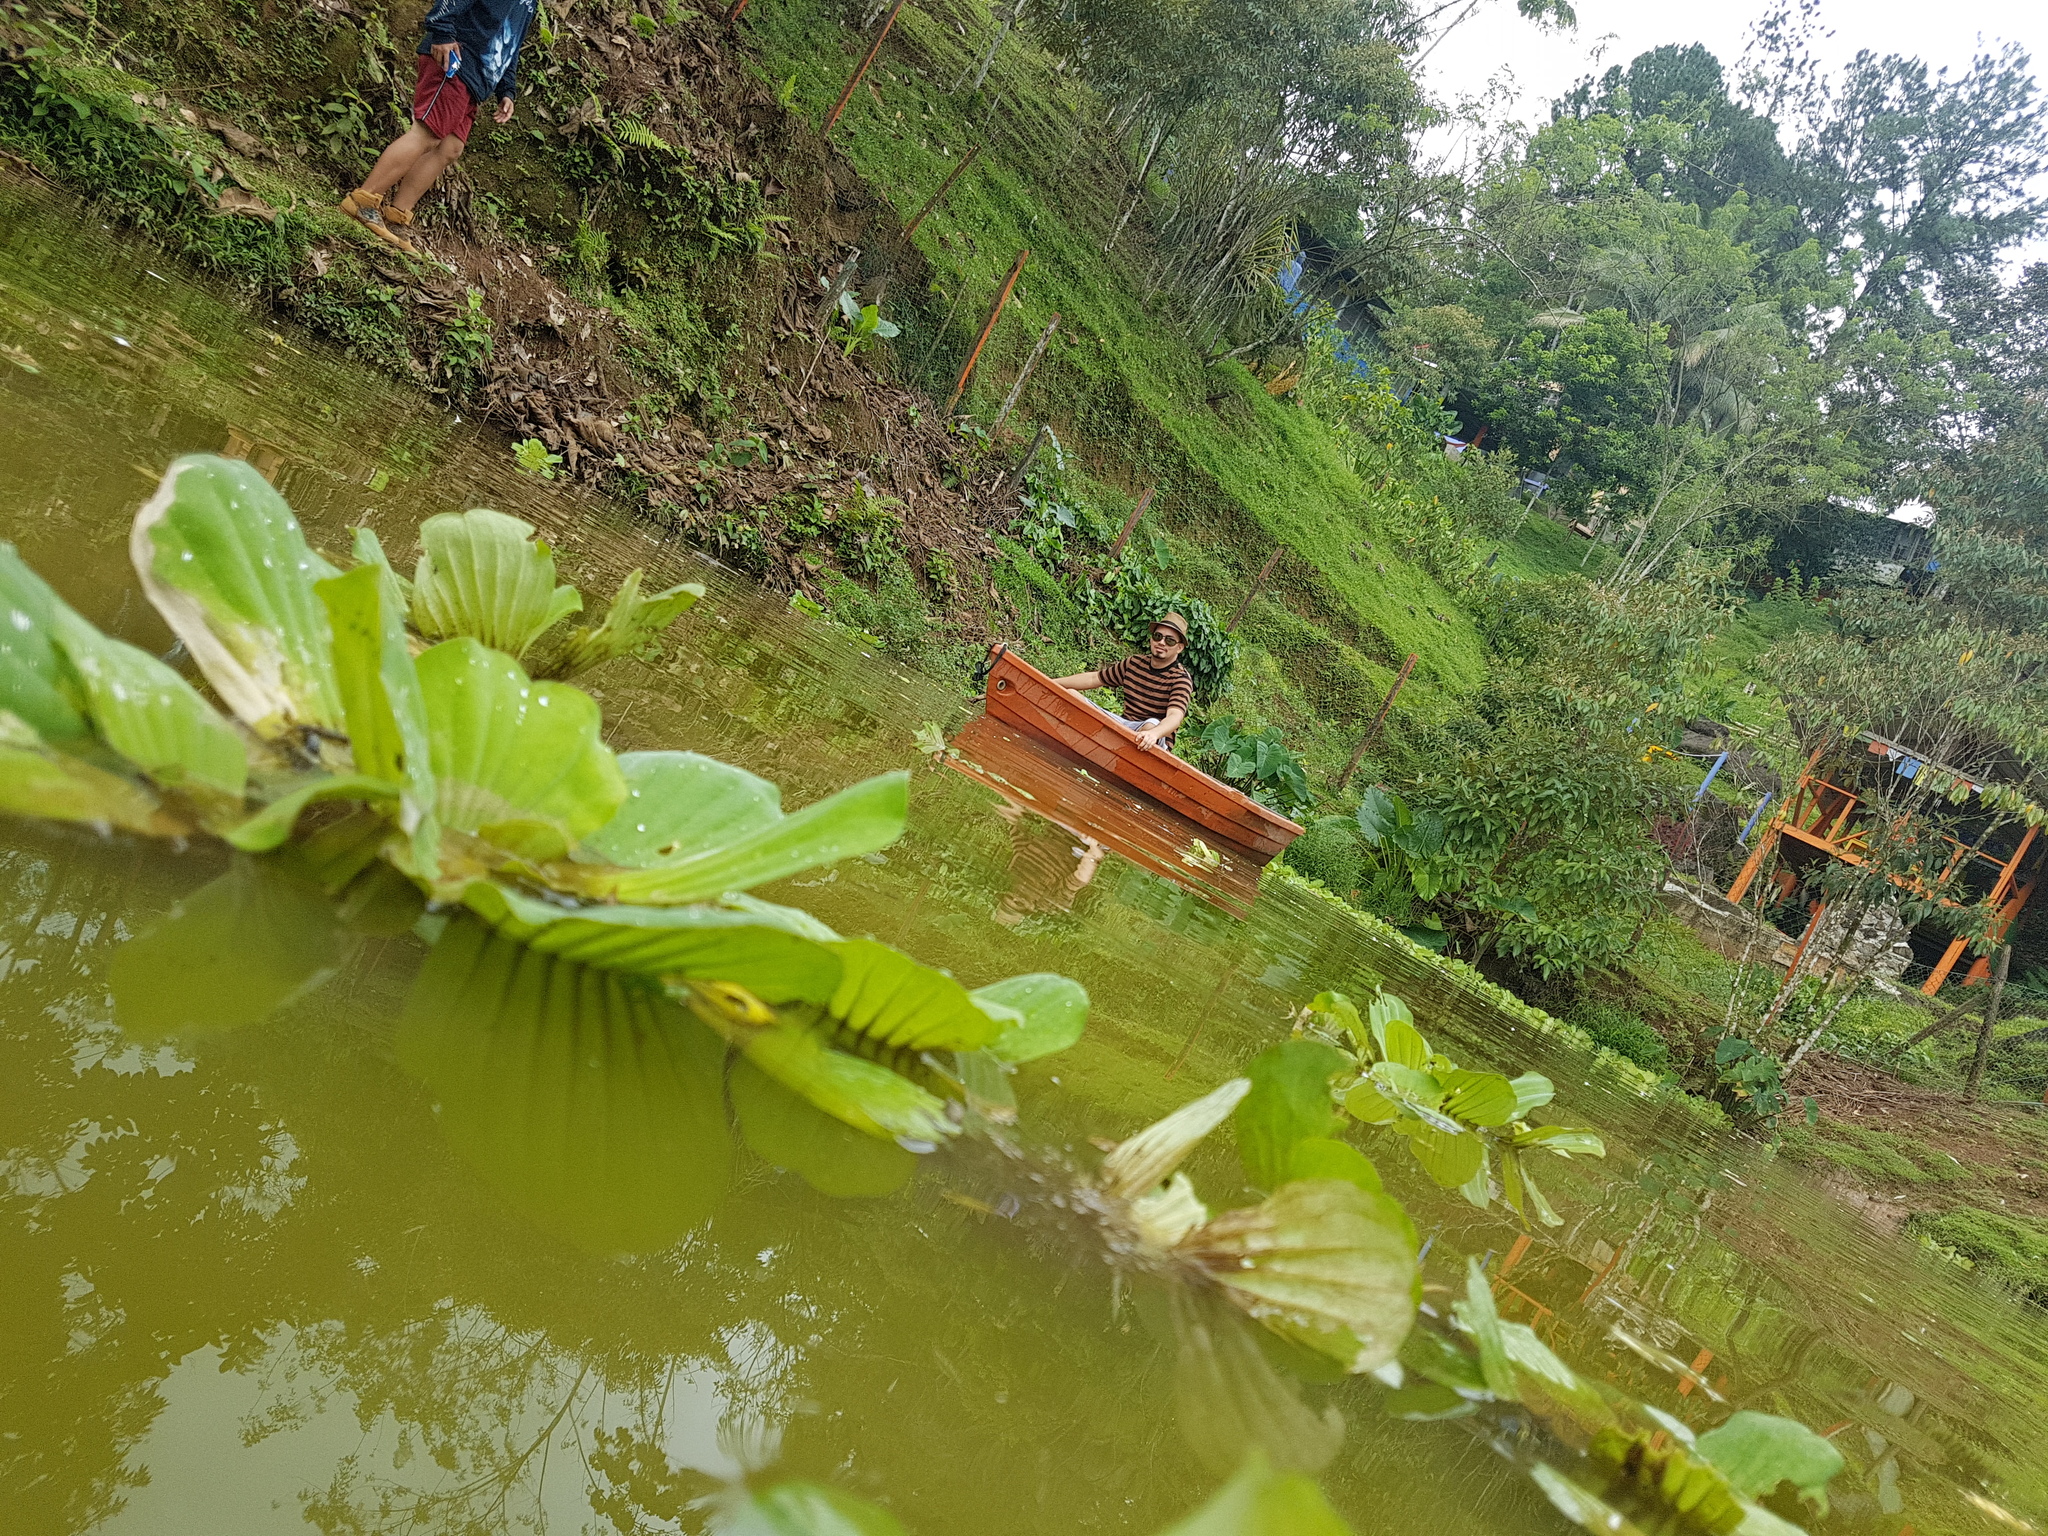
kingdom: Plantae
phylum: Tracheophyta
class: Liliopsida
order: Alismatales
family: Araceae
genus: Pistia
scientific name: Pistia stratiotes
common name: Water lettuce
